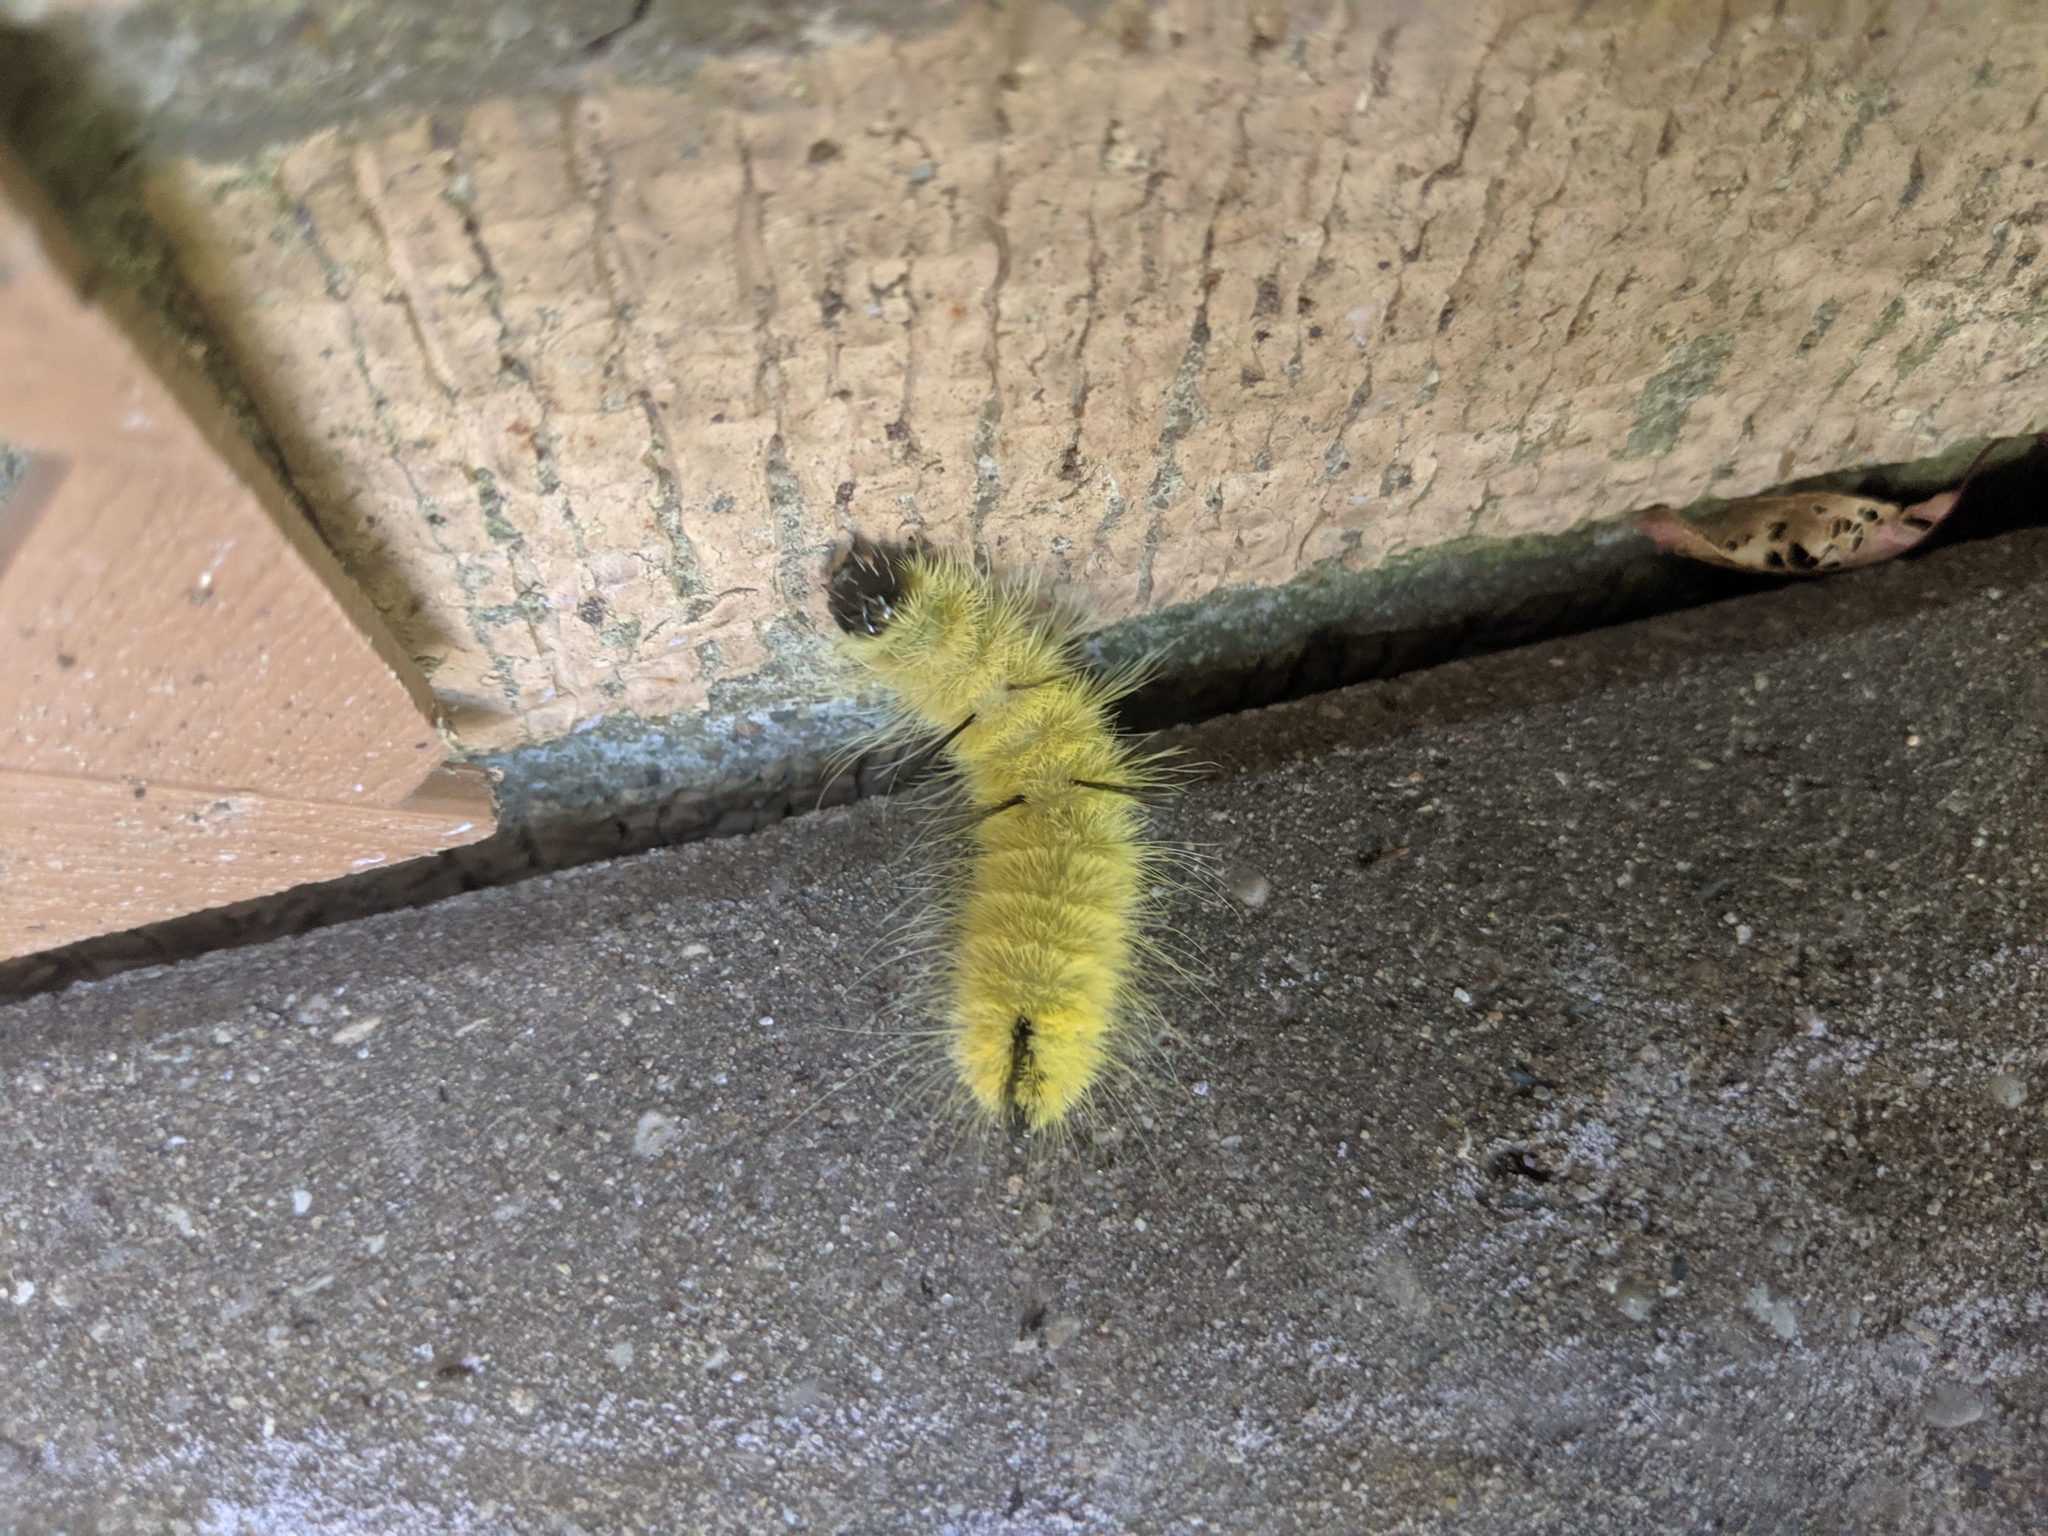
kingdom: Animalia
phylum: Arthropoda
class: Insecta
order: Lepidoptera
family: Noctuidae
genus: Acronicta
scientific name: Acronicta americana
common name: American dagger
